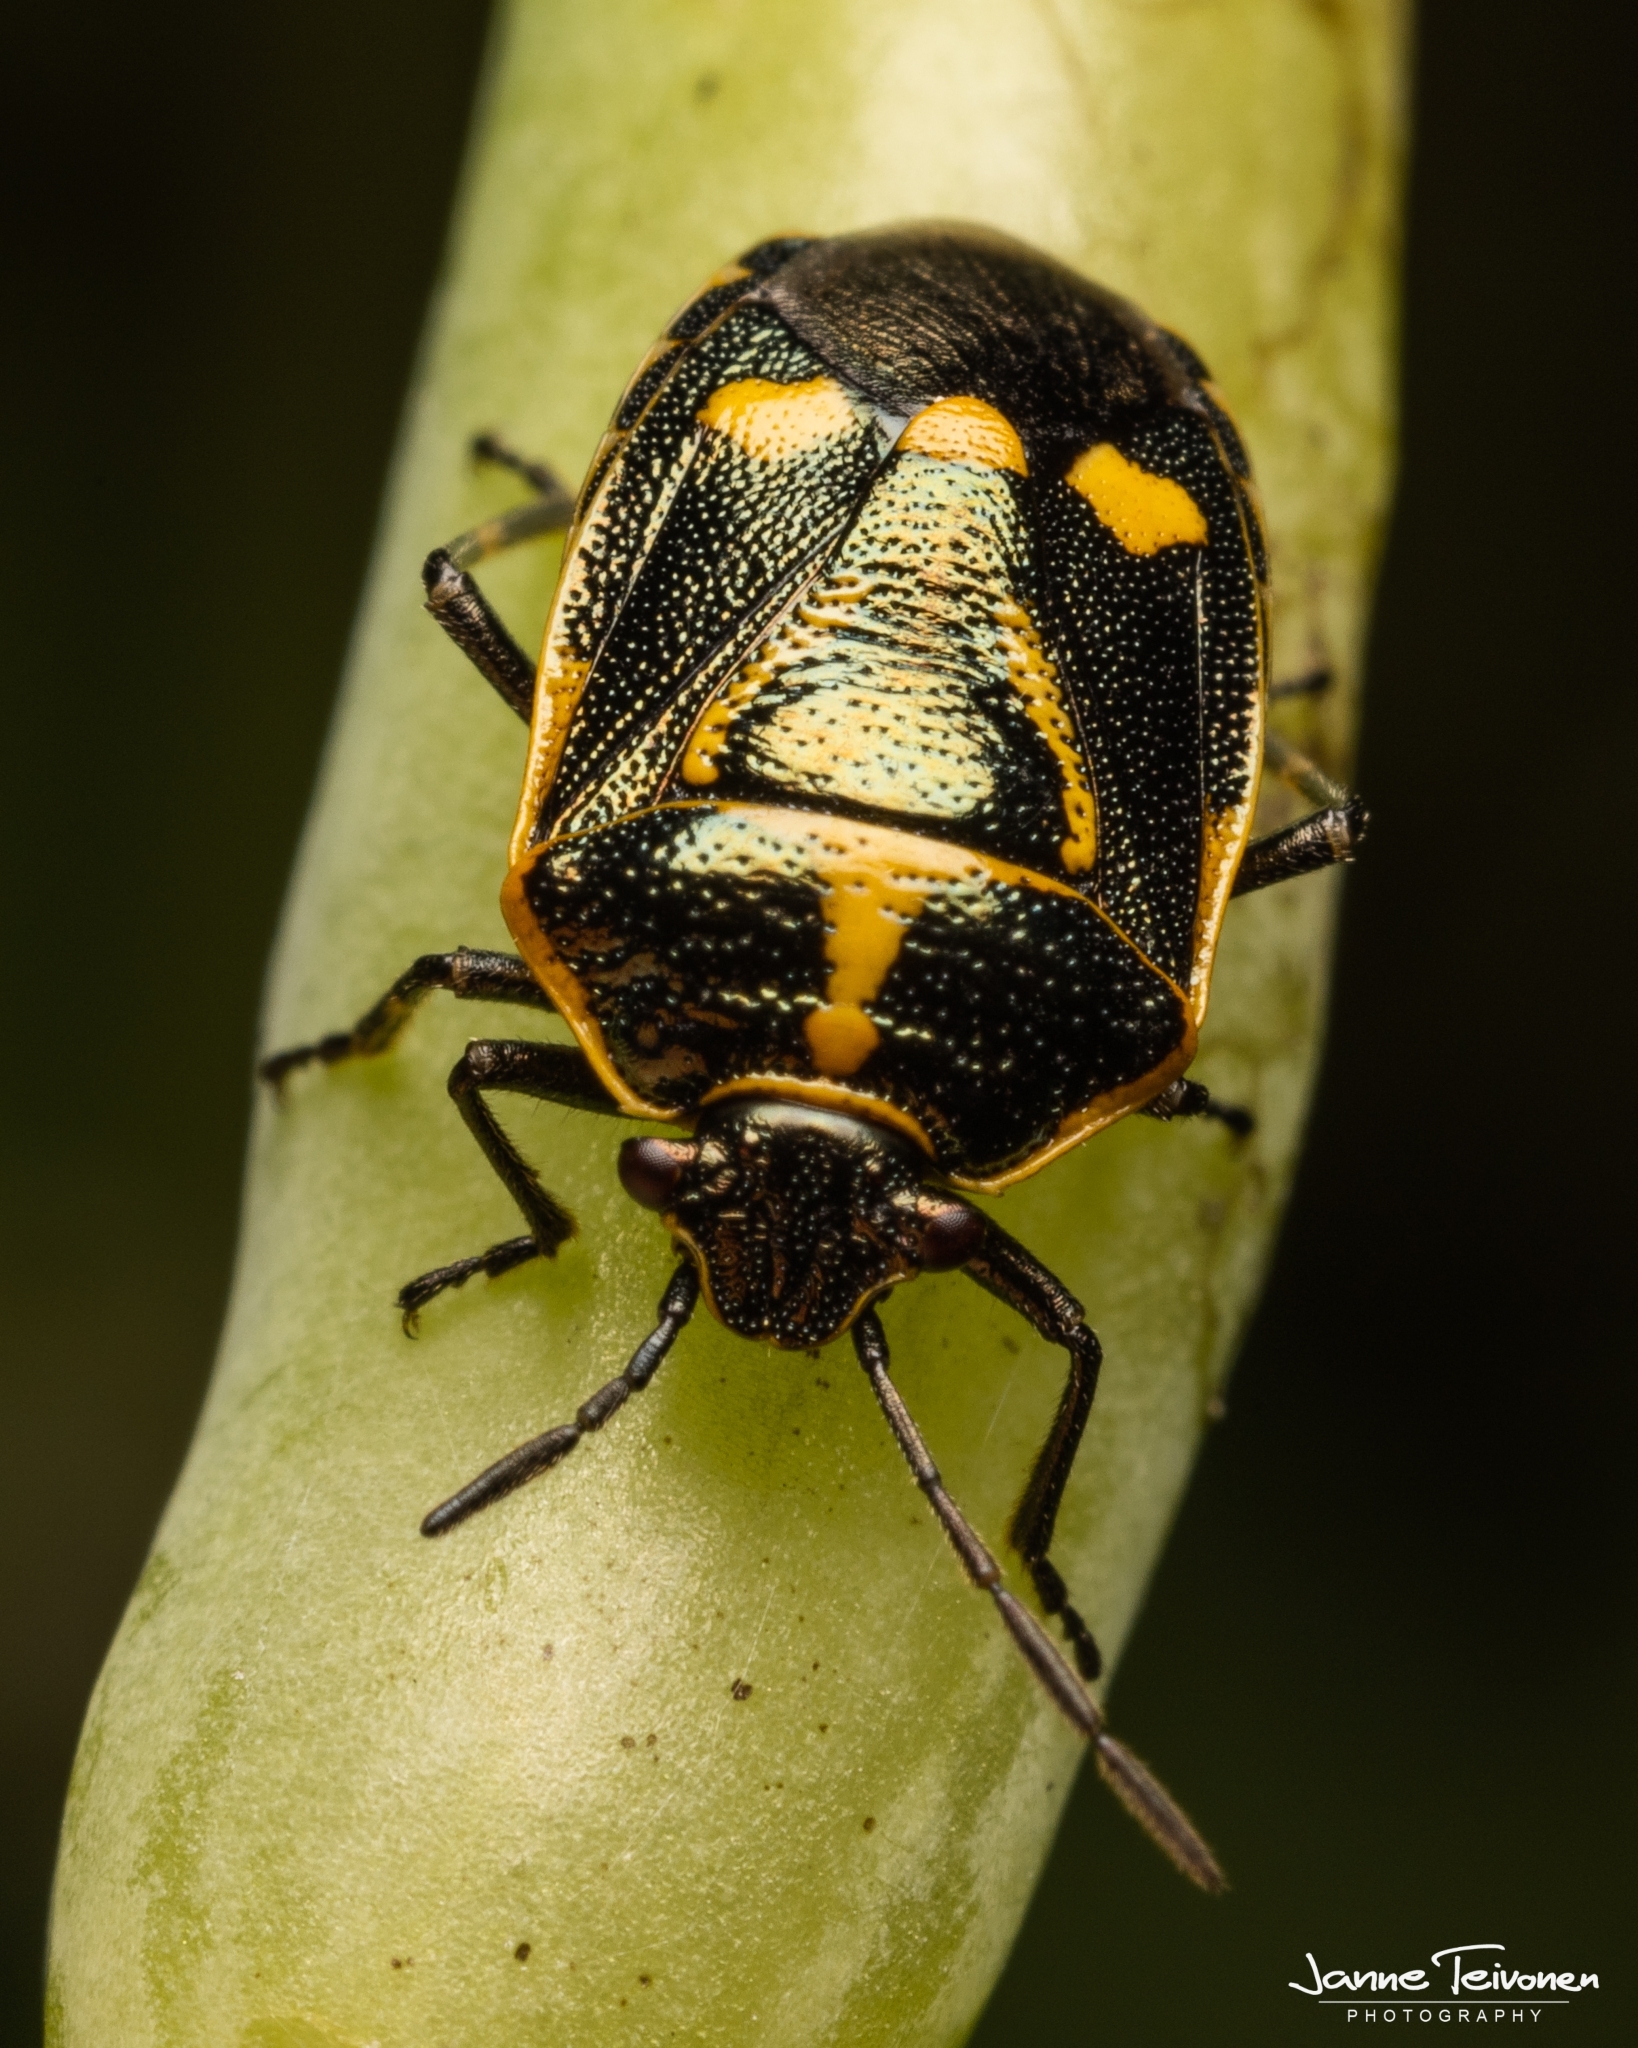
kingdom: Animalia
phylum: Arthropoda
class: Insecta
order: Hemiptera
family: Pentatomidae
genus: Eurydema
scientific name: Eurydema oleracea
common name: Cabbage bug
